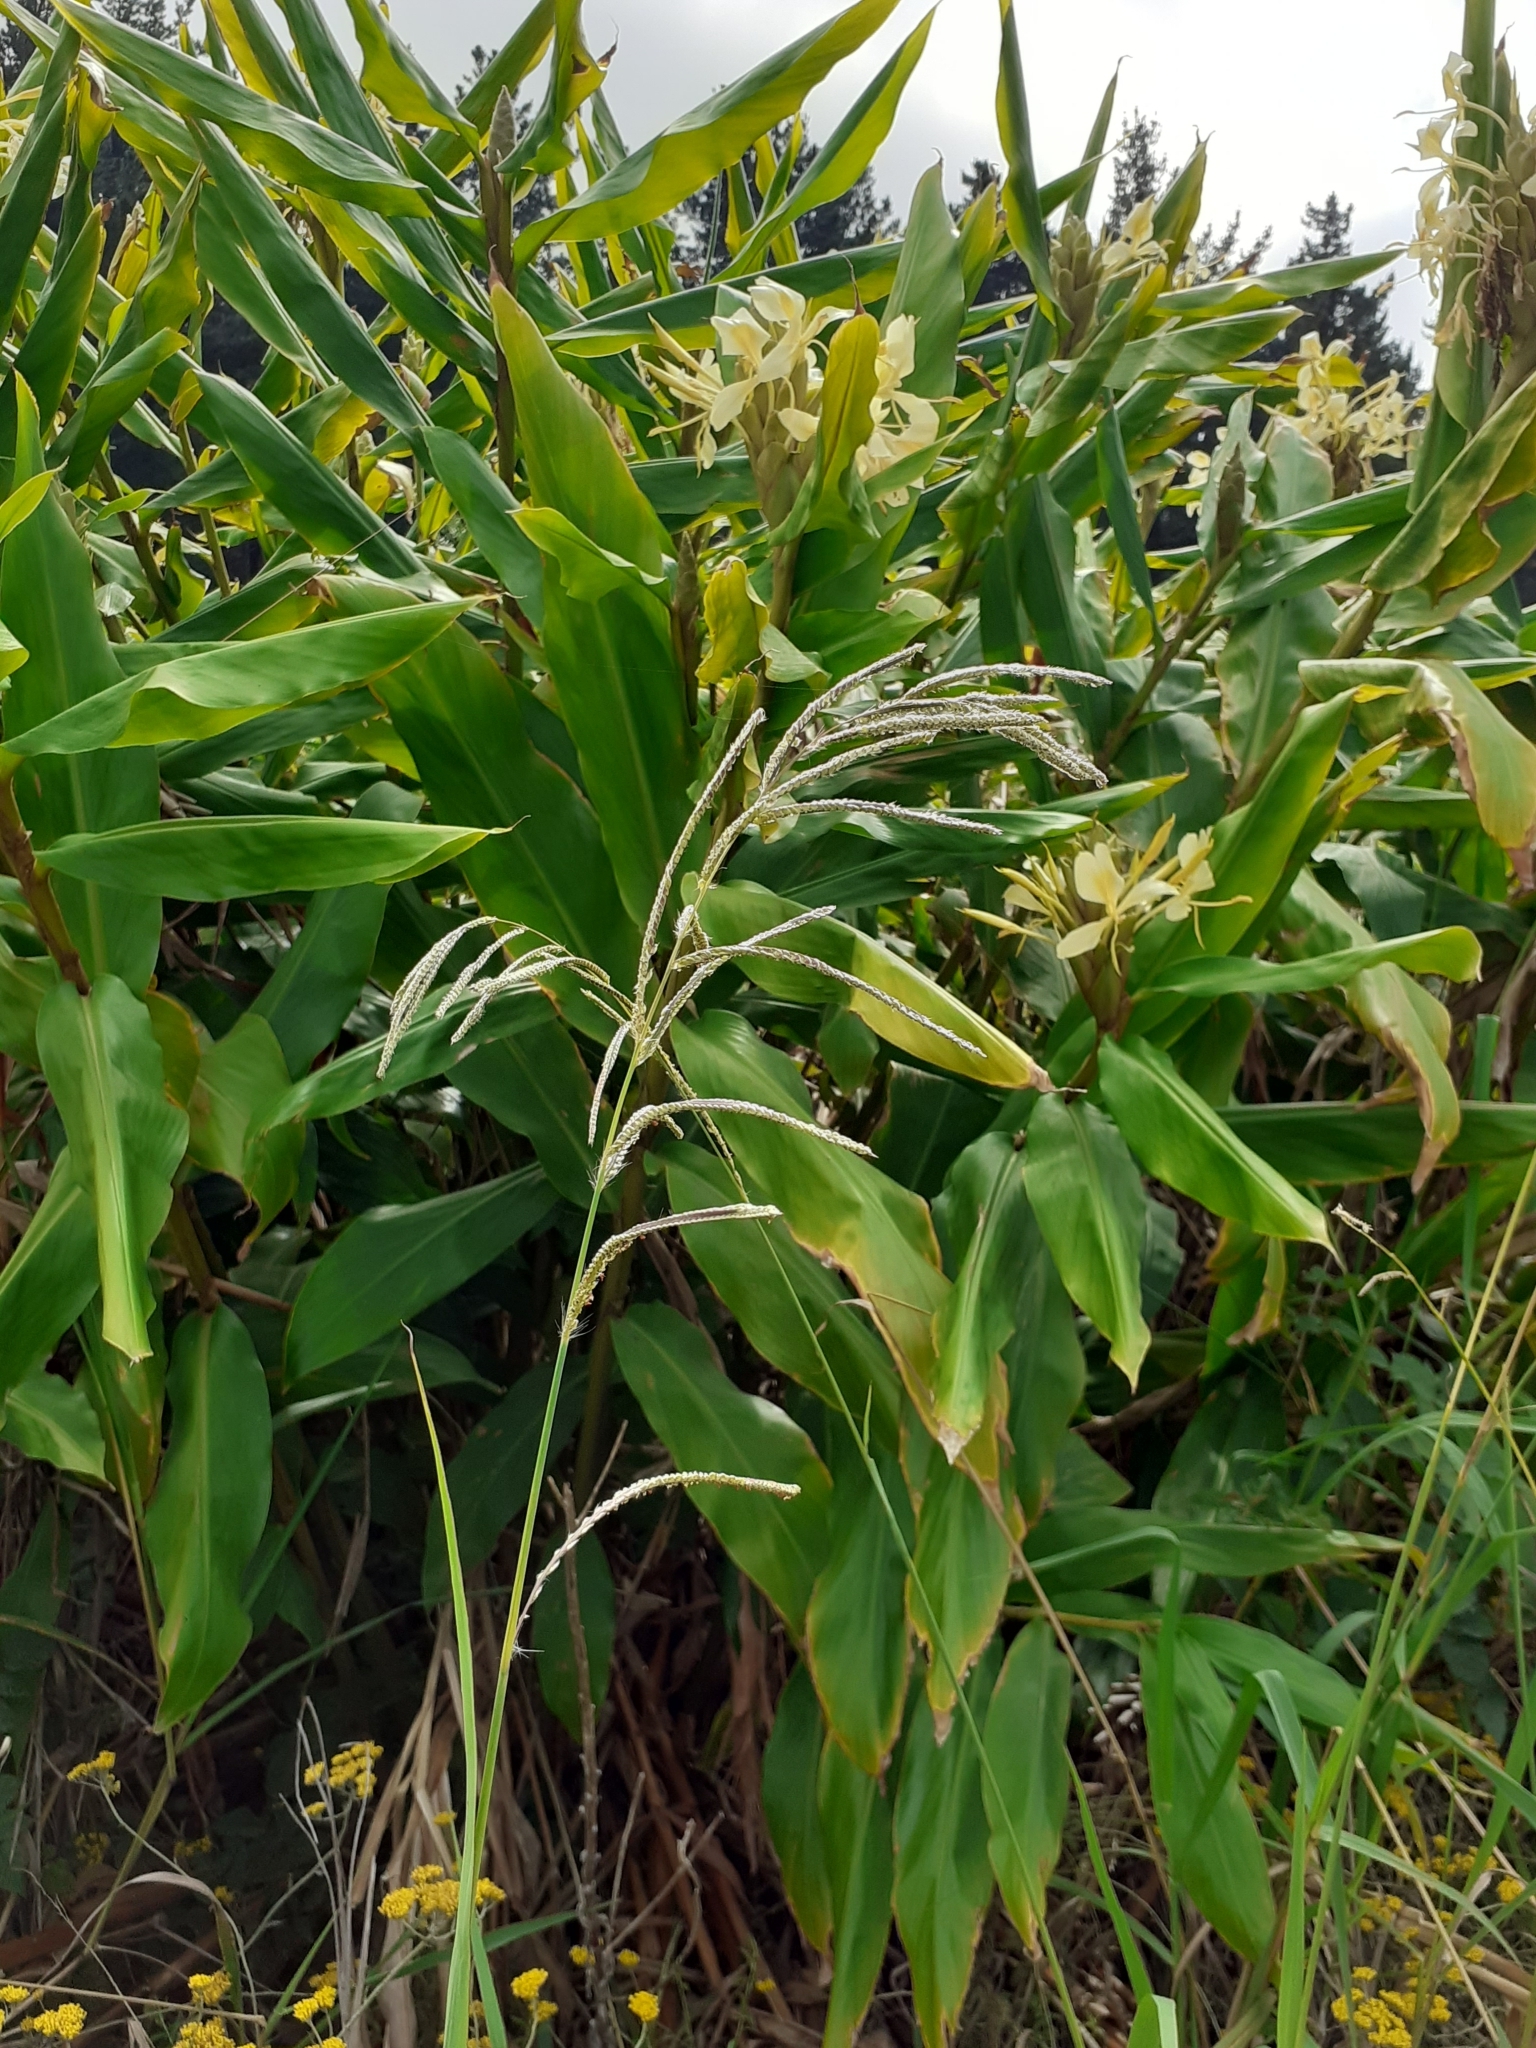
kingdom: Plantae
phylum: Tracheophyta
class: Liliopsida
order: Zingiberales
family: Zingiberaceae
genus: Hedychium
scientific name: Hedychium flavescens
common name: Yellow ginger
